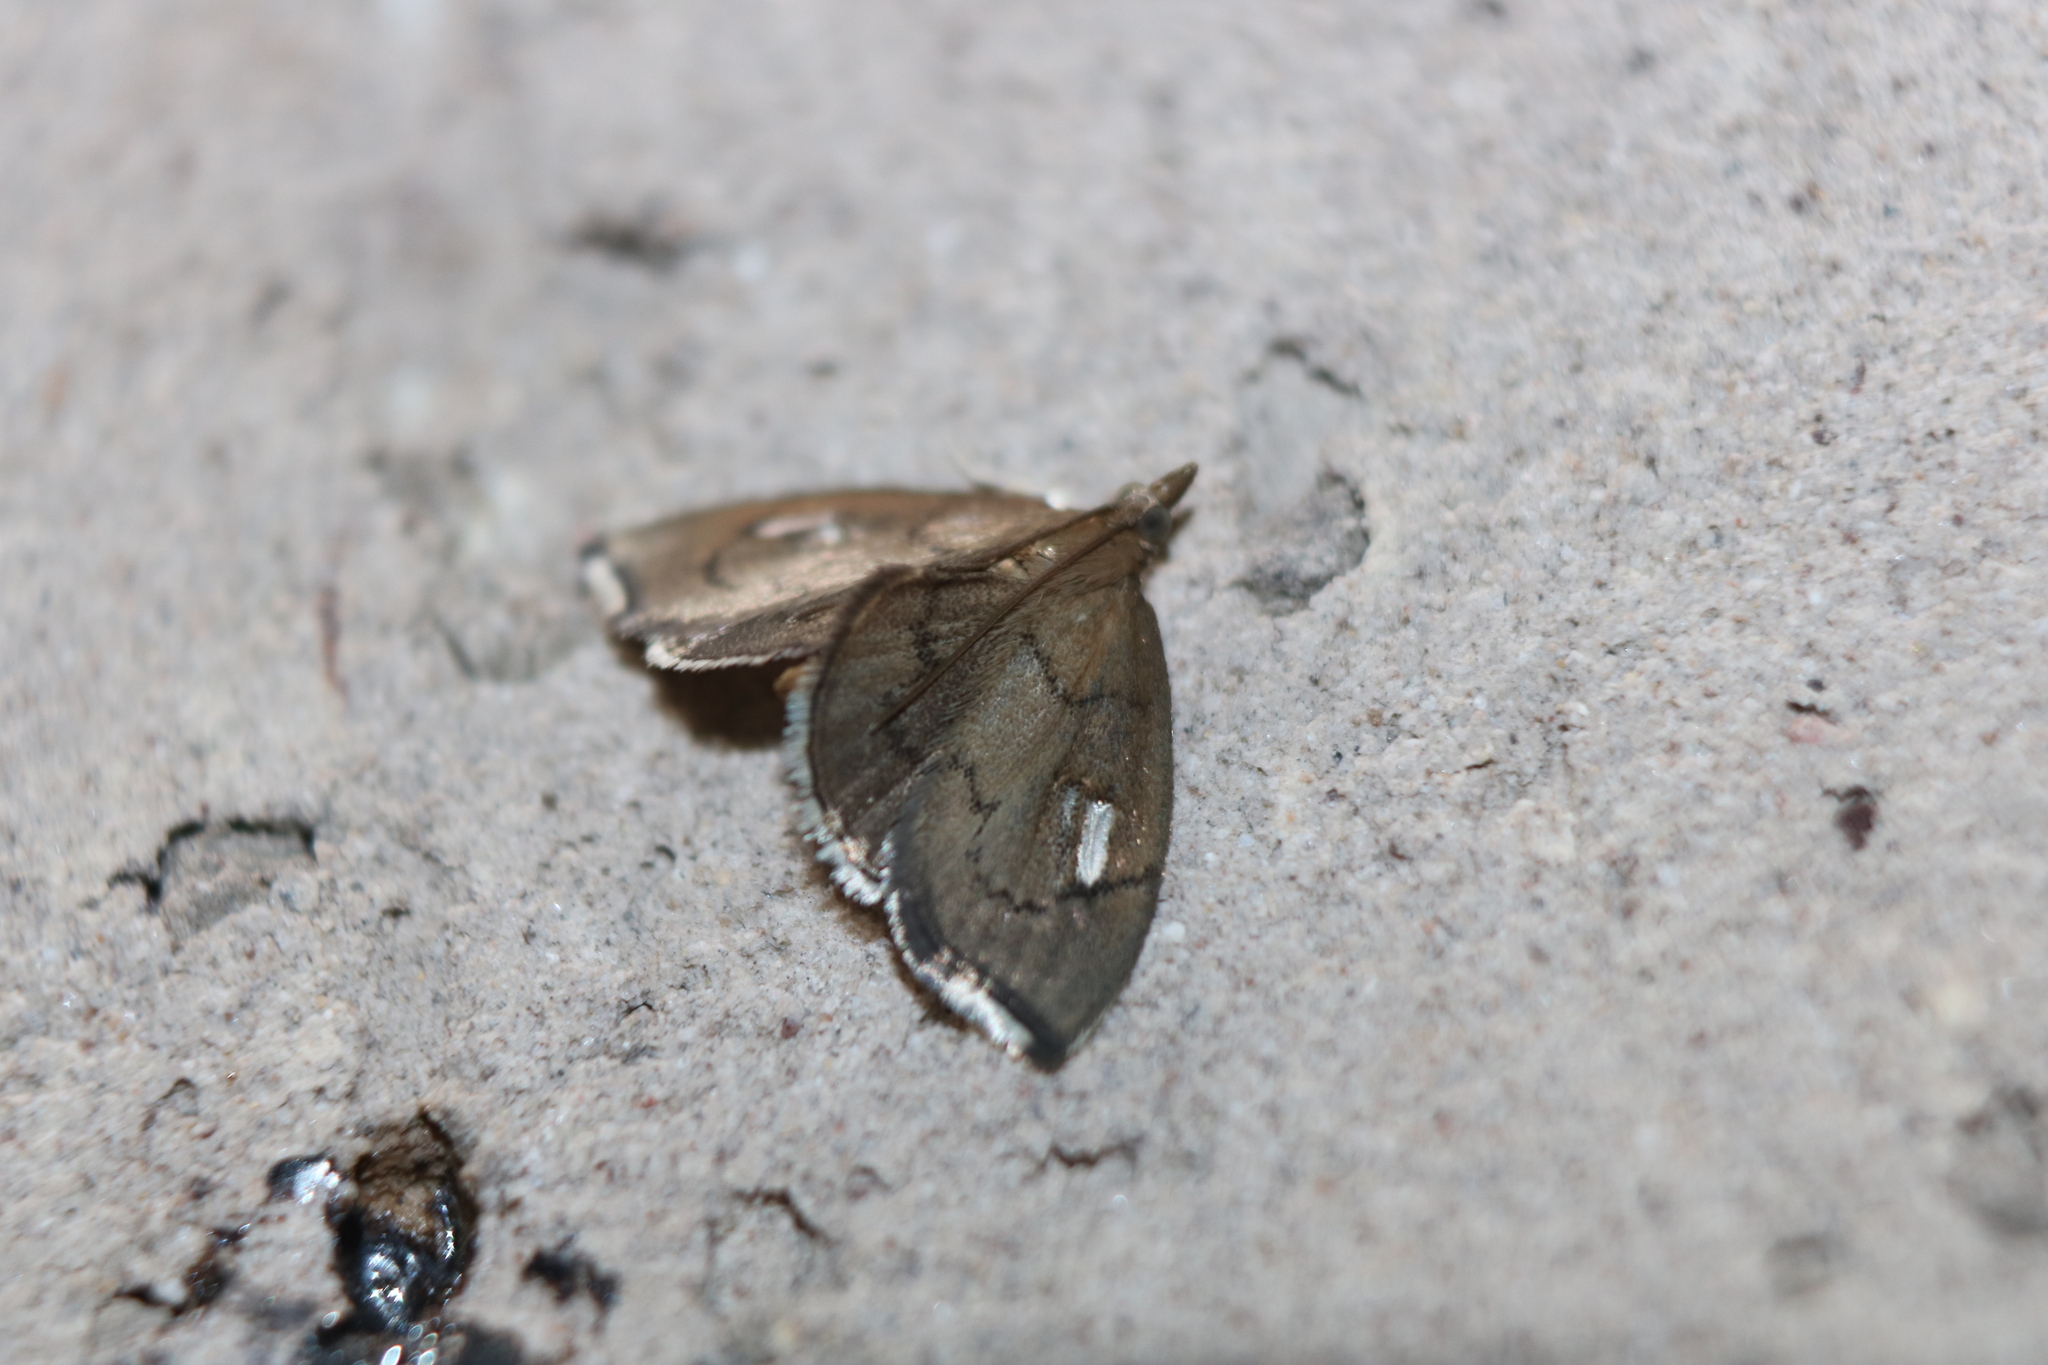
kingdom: Animalia
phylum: Arthropoda
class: Insecta
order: Lepidoptera
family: Crambidae
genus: Perispasta
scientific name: Perispasta caeculalis
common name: Titian peale's moth
